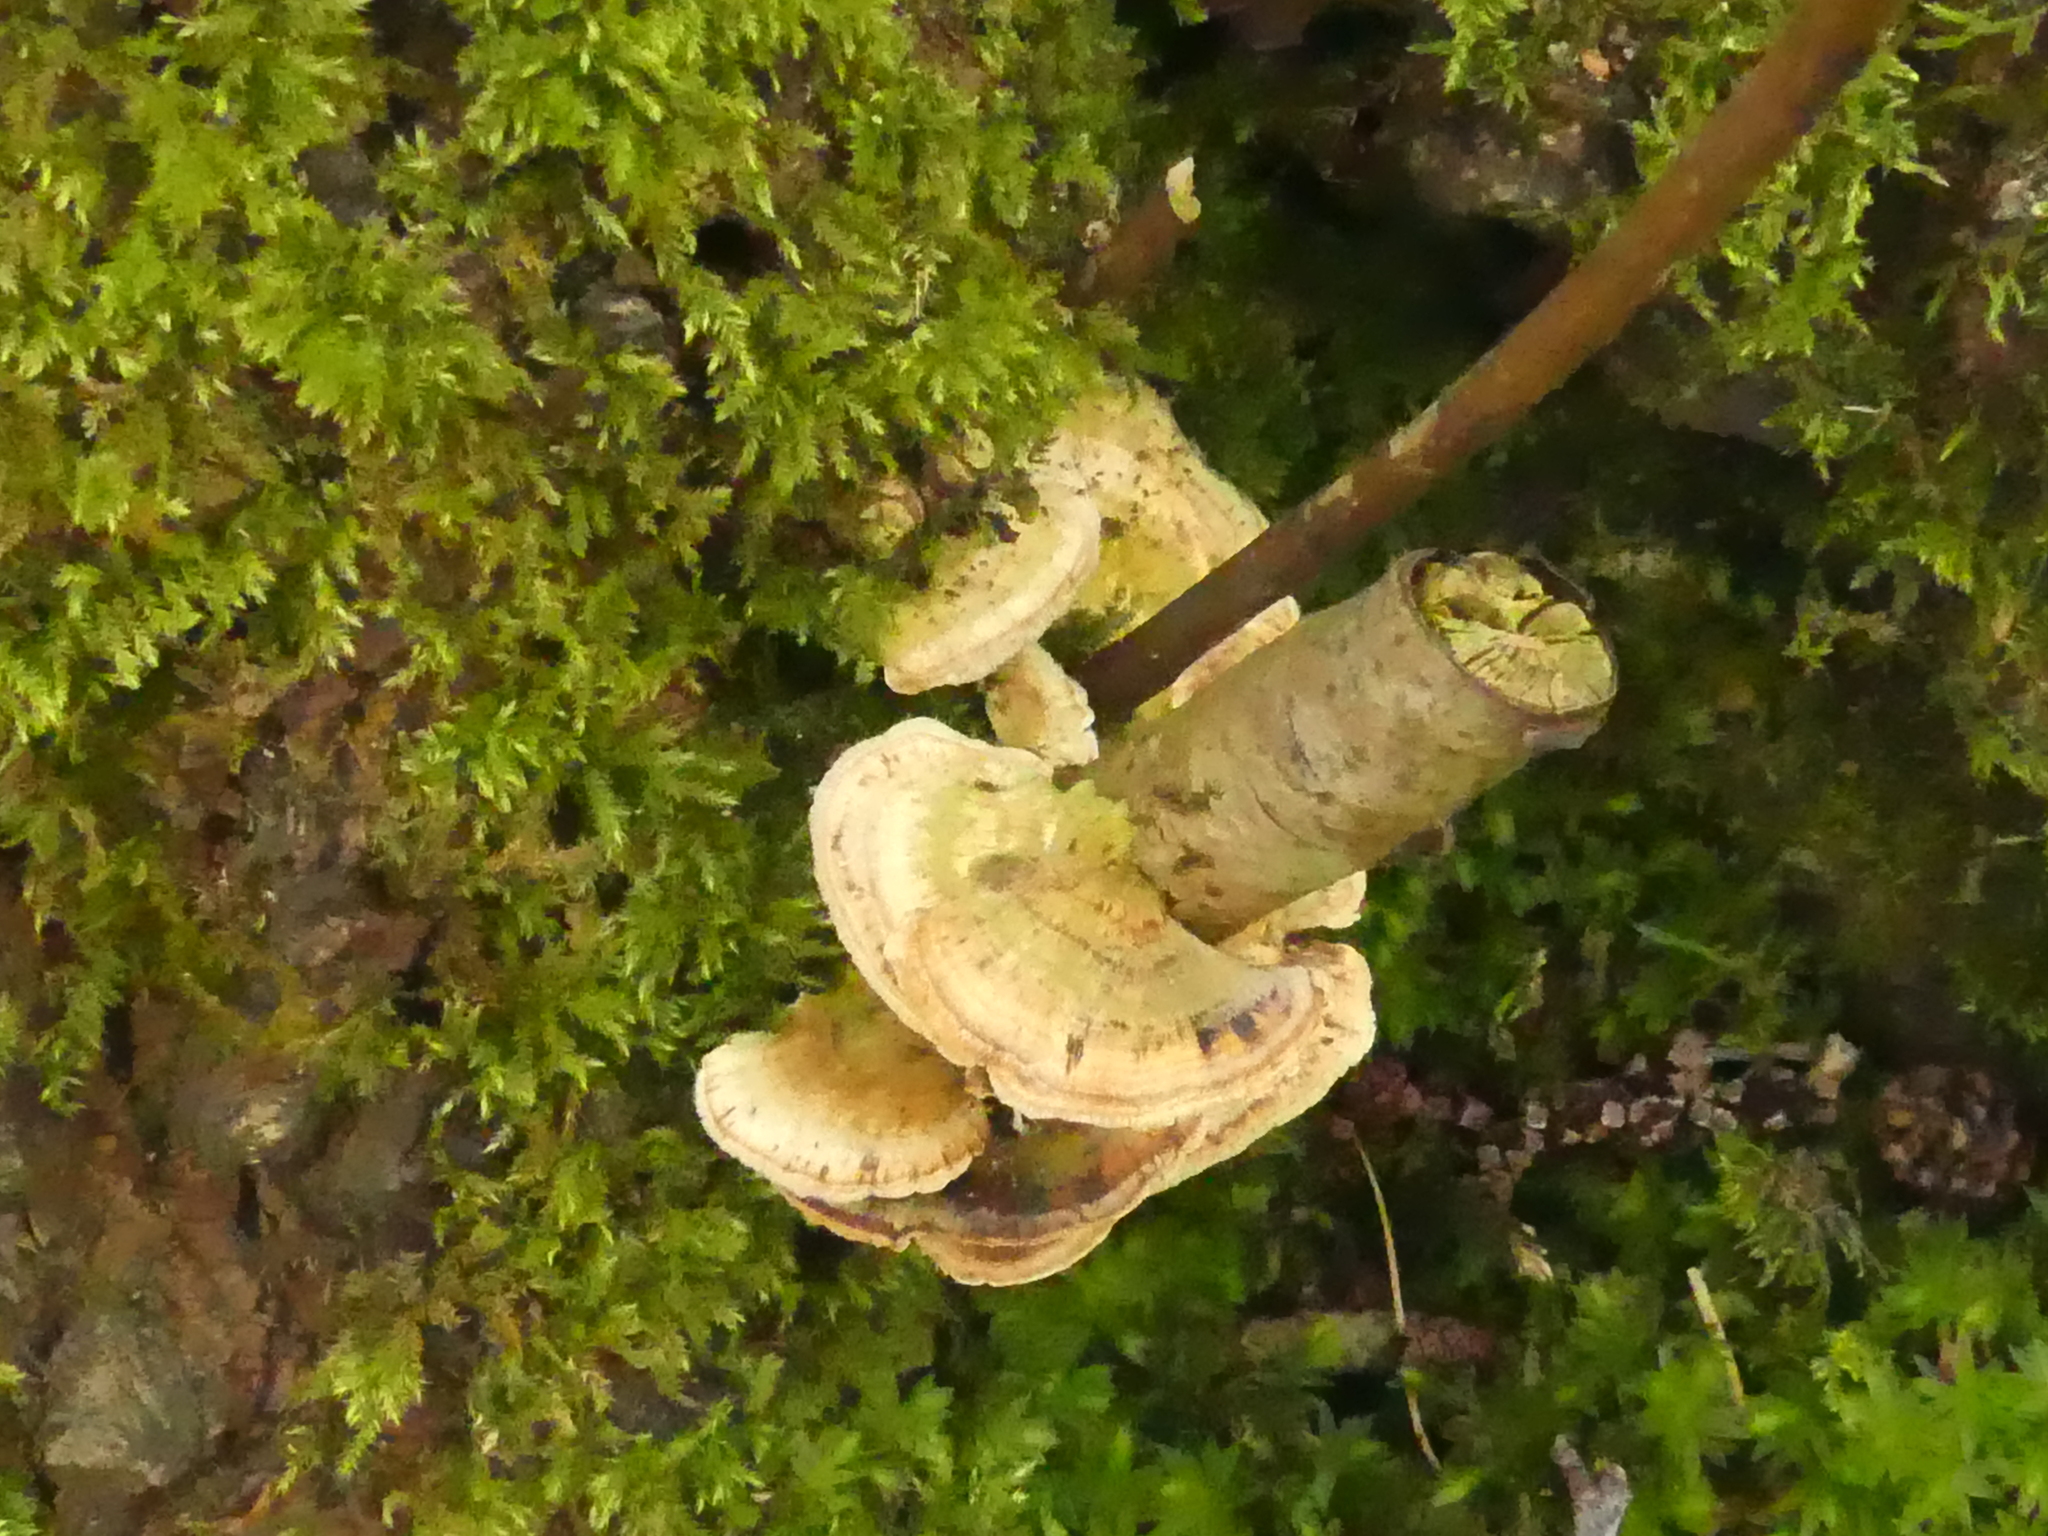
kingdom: Fungi
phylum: Basidiomycota
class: Agaricomycetes
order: Polyporales
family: Polyporaceae
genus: Trametes
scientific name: Trametes gibbosa
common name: Lumpy bracket
